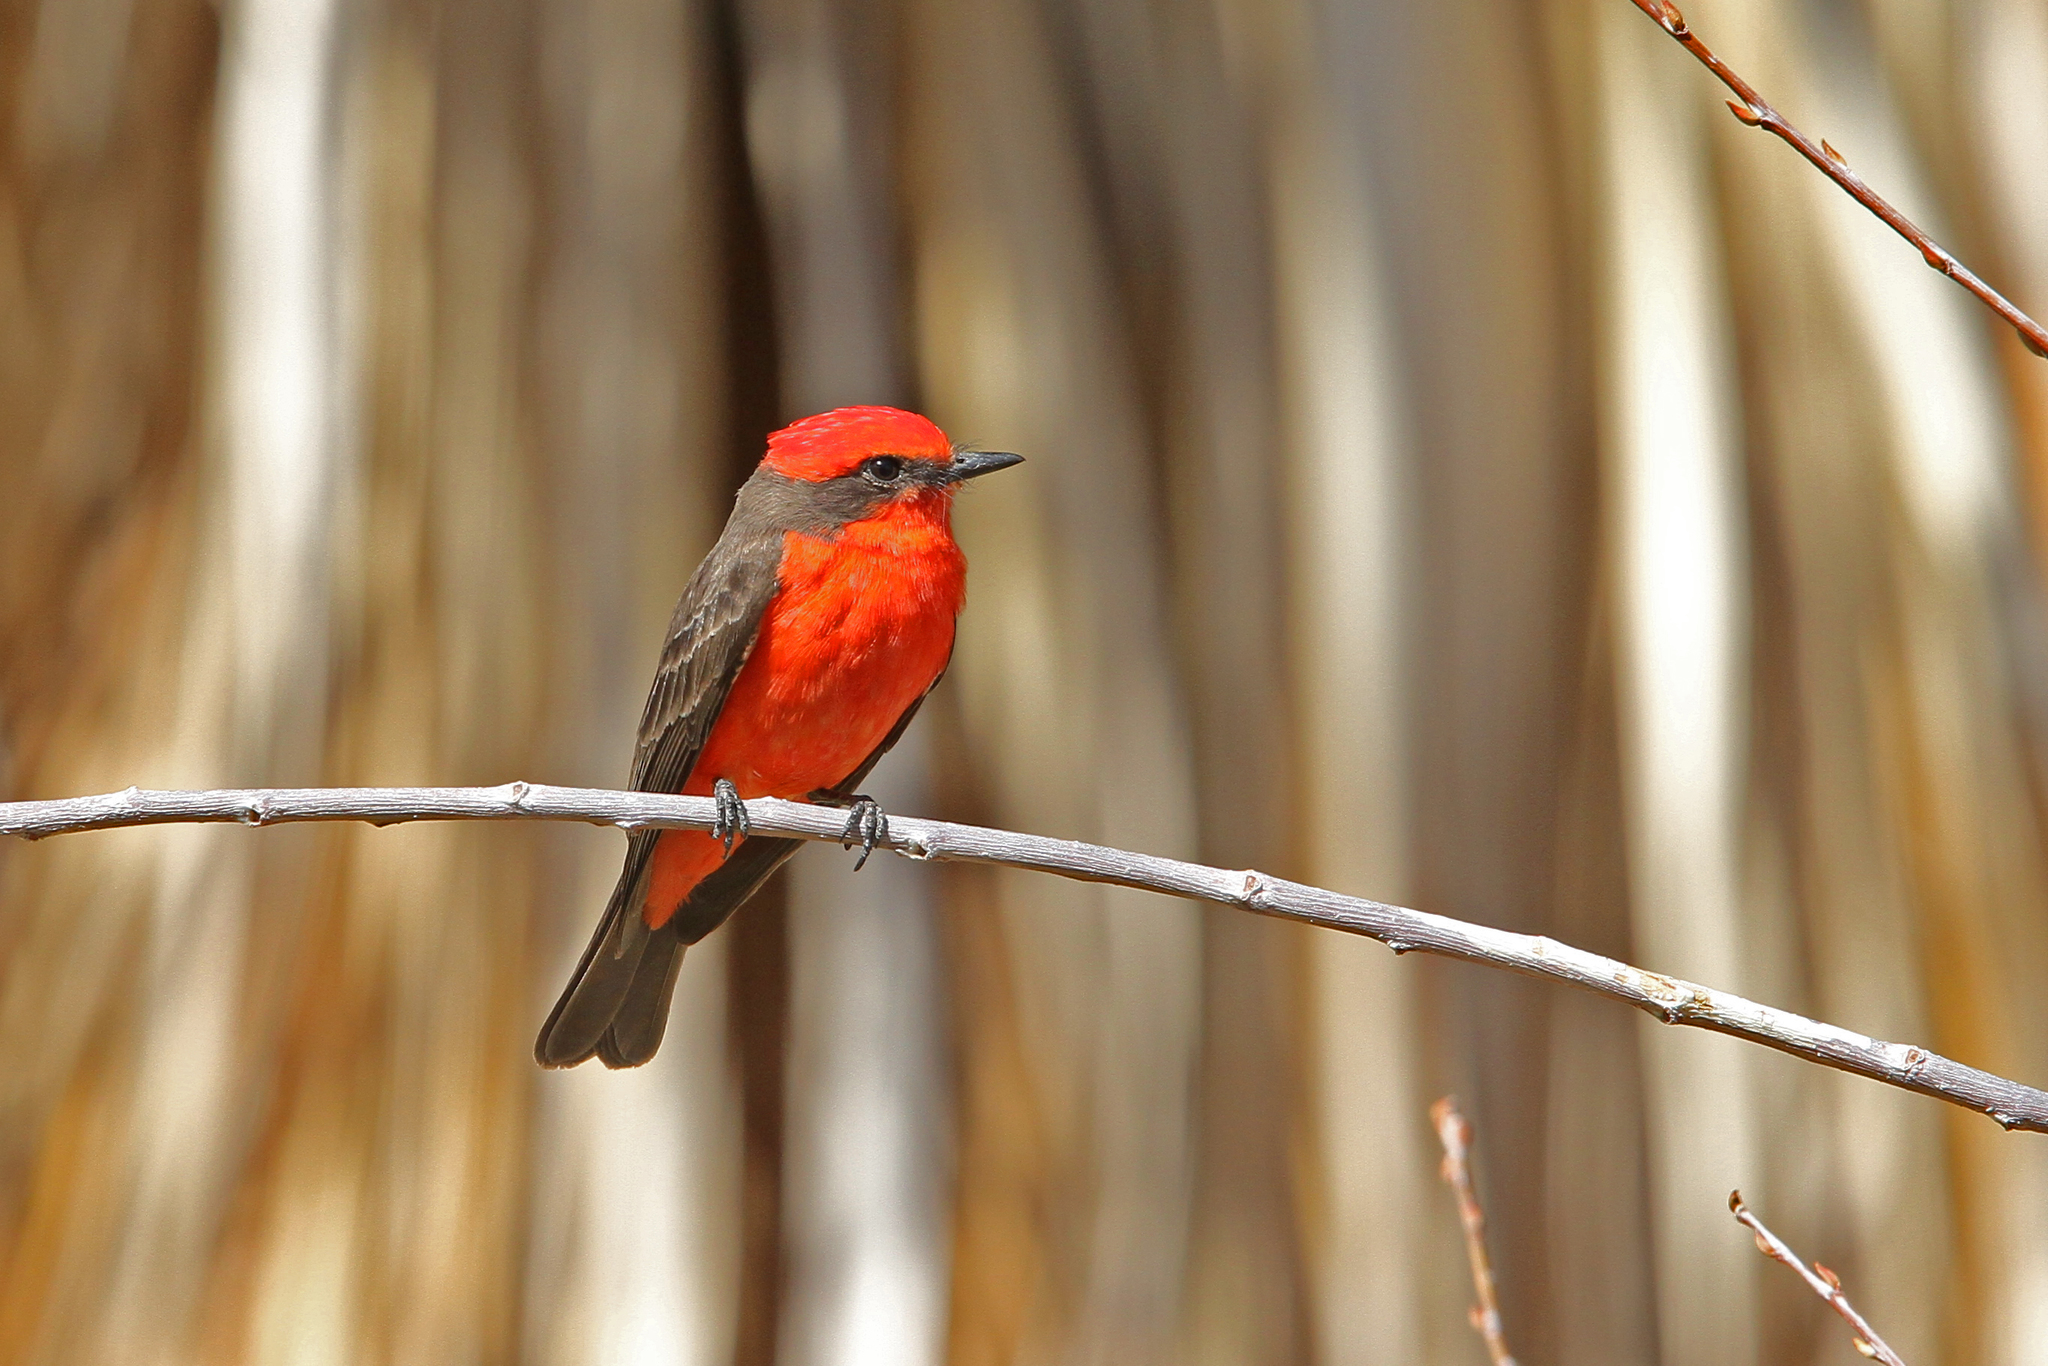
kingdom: Animalia
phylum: Chordata
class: Aves
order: Passeriformes
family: Tyrannidae
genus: Pyrocephalus
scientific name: Pyrocephalus rubinus
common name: Vermilion flycatcher
